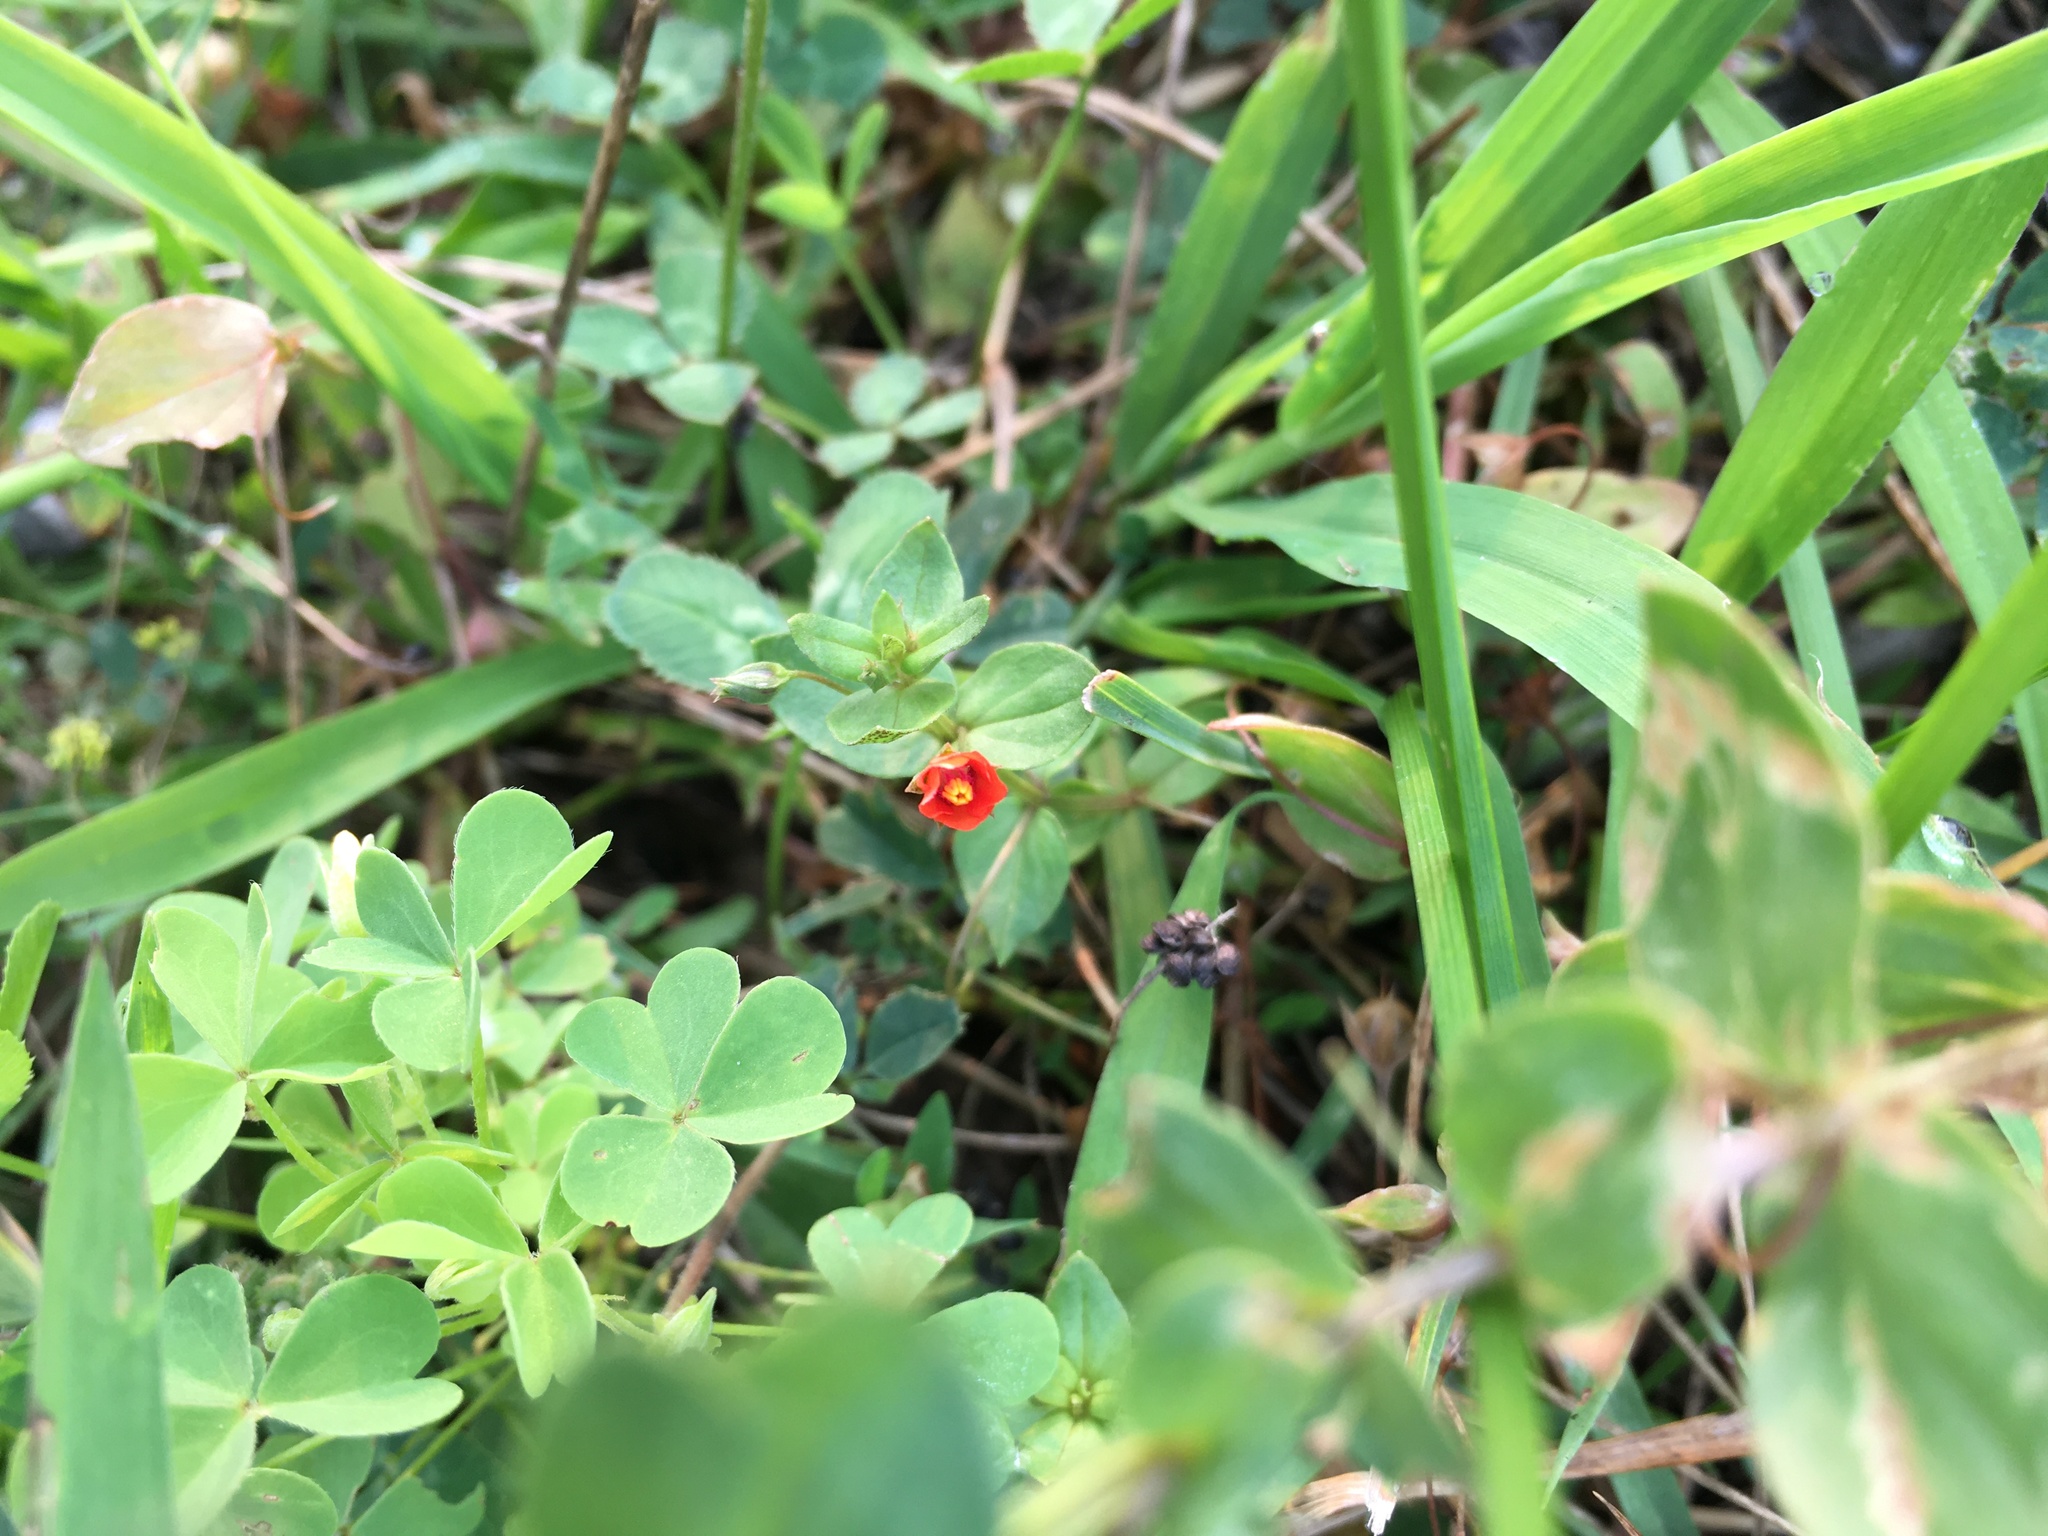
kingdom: Plantae
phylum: Tracheophyta
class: Magnoliopsida
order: Ericales
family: Primulaceae
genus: Lysimachia
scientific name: Lysimachia arvensis
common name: Scarlet pimpernel
